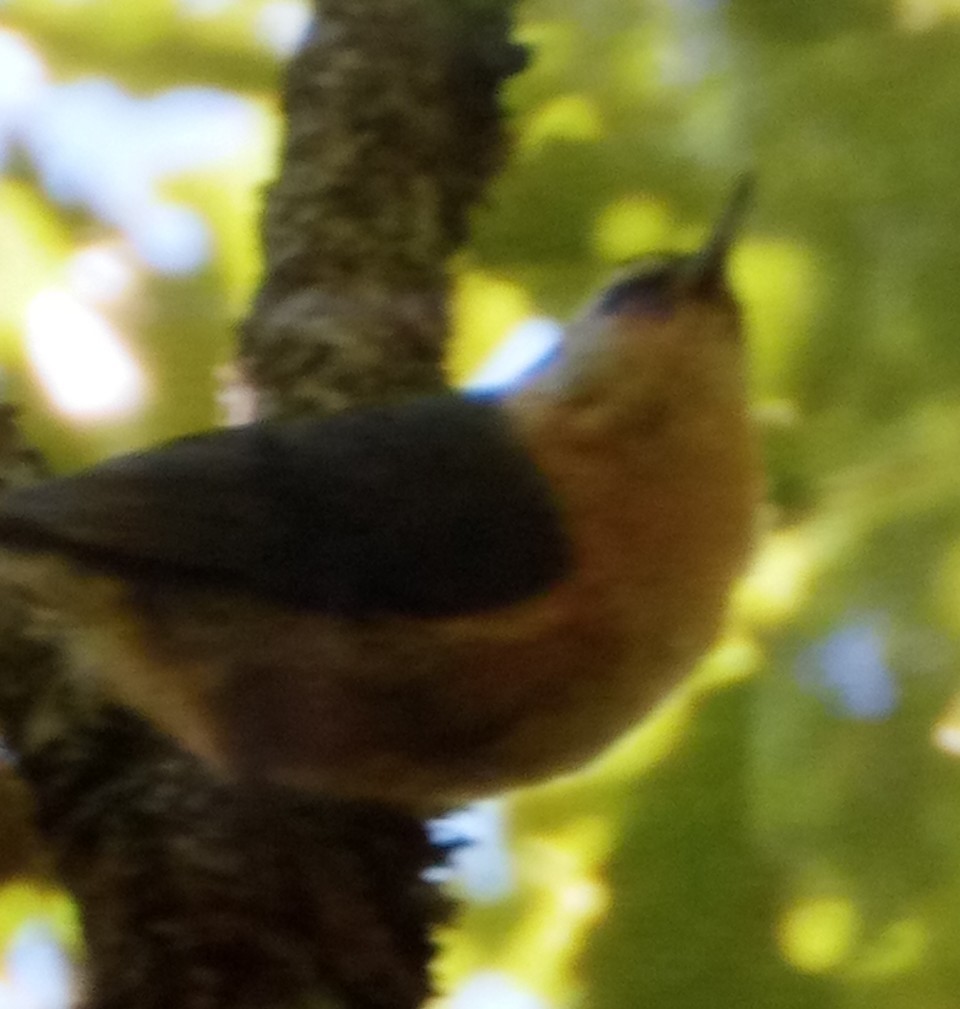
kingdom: Animalia
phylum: Chordata
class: Aves
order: Passeriformes
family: Sittidae
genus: Sitta
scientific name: Sitta ledanti
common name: Algerian nuthatch
